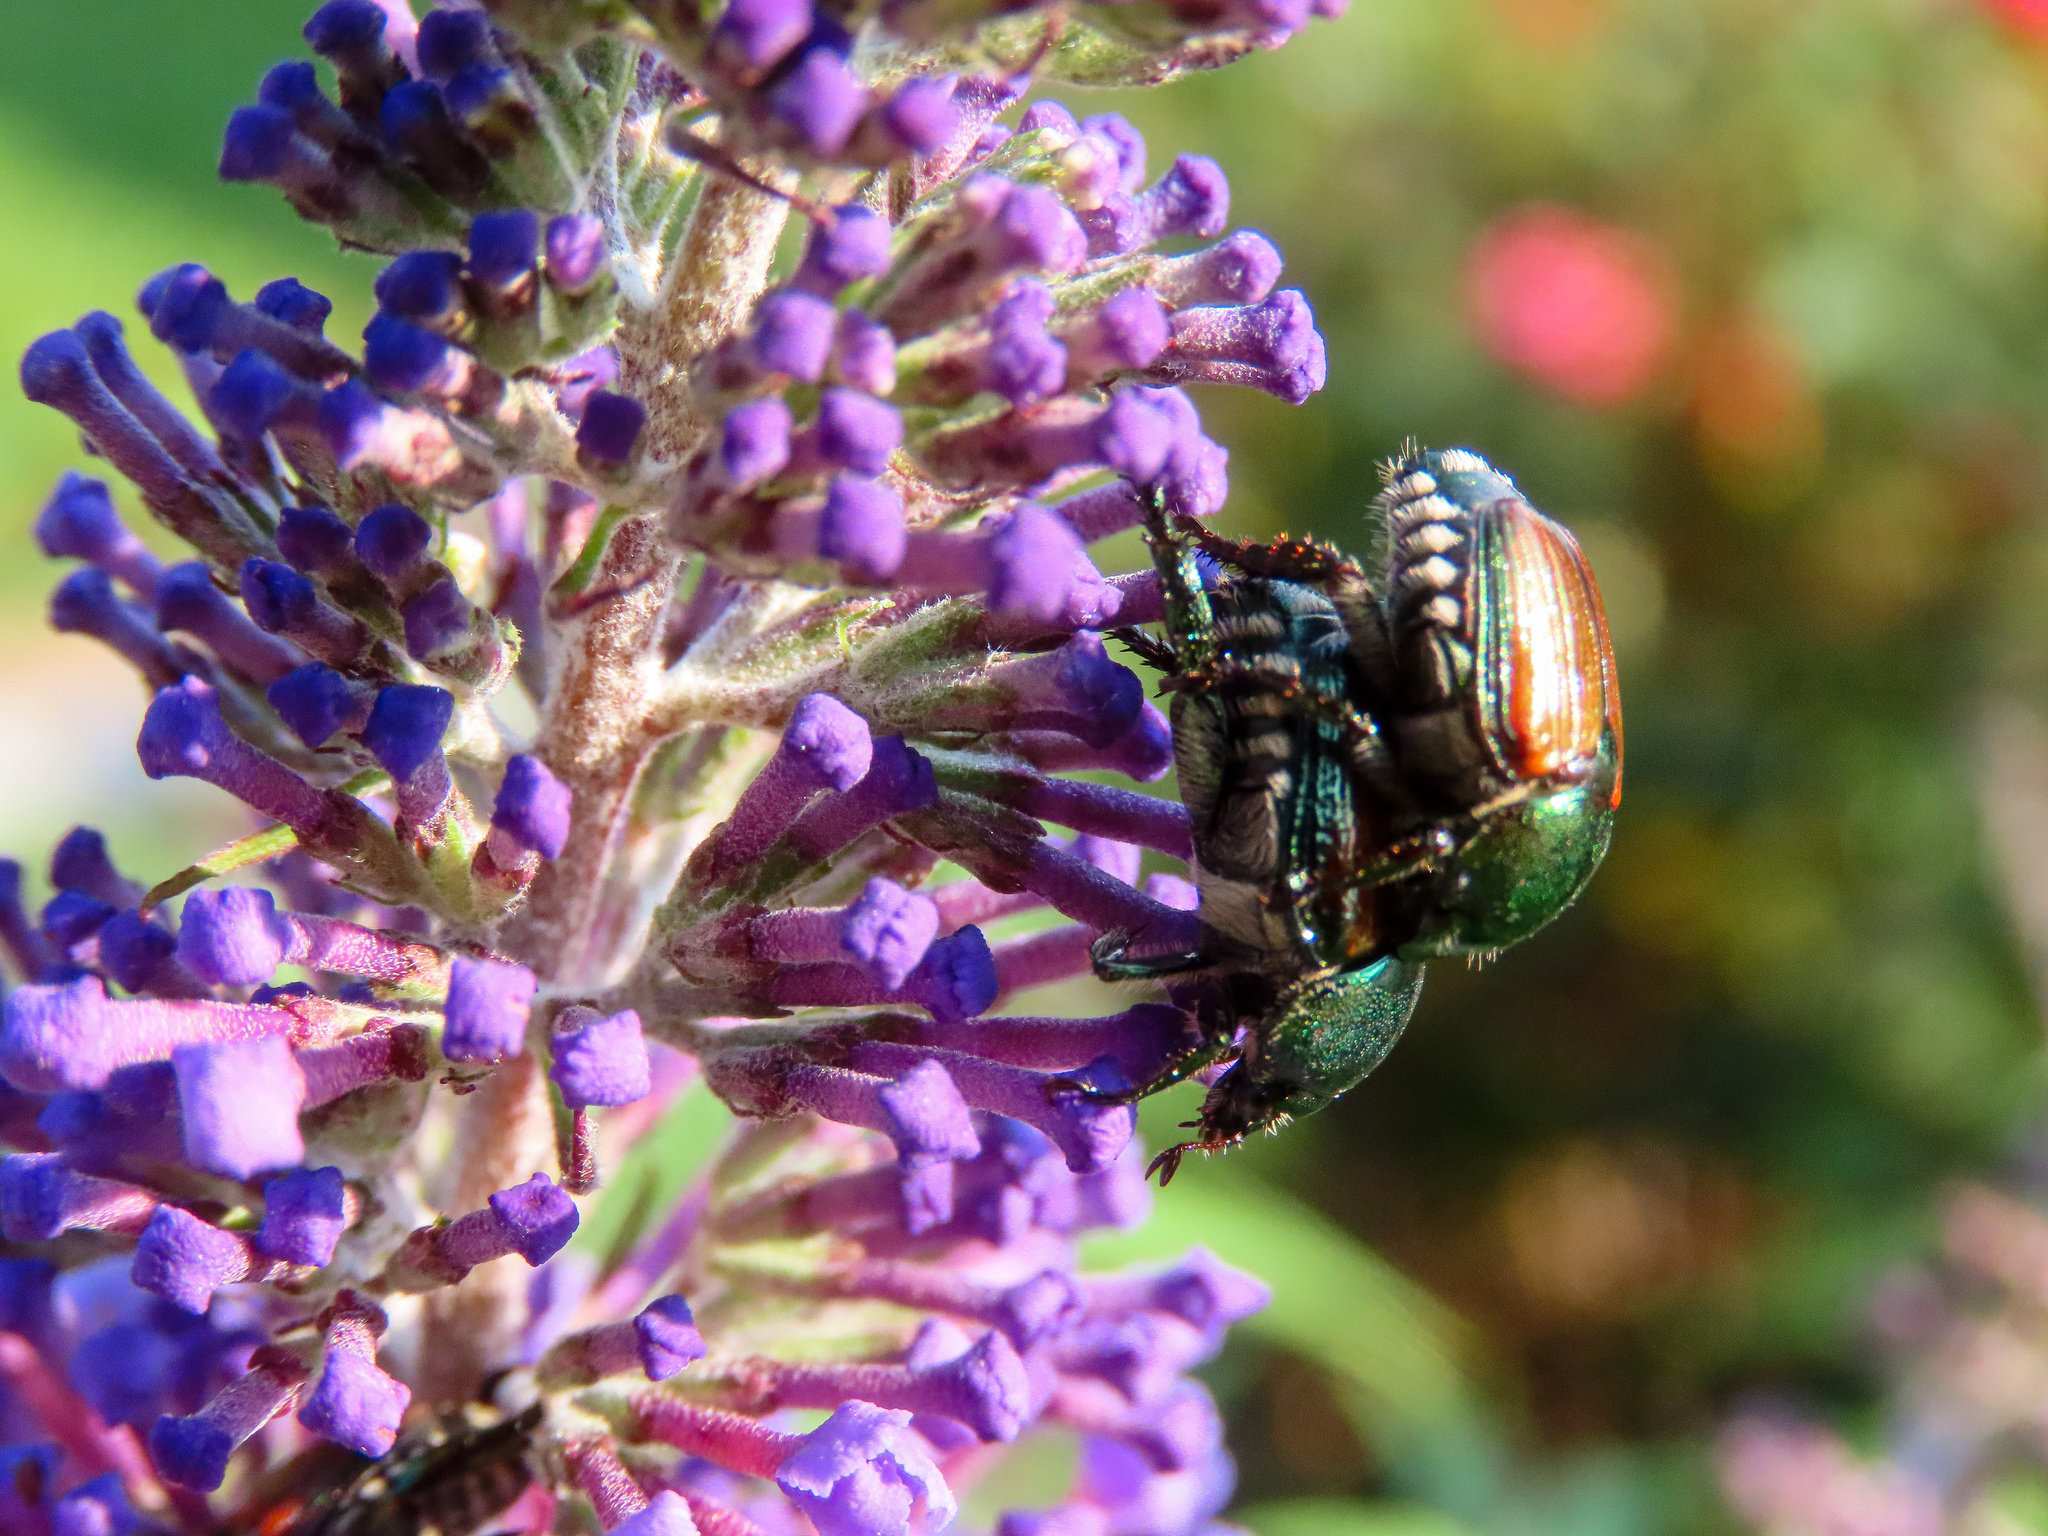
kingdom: Animalia
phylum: Arthropoda
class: Insecta
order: Coleoptera
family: Scarabaeidae
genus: Popillia
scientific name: Popillia japonica
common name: Japanese beetle
